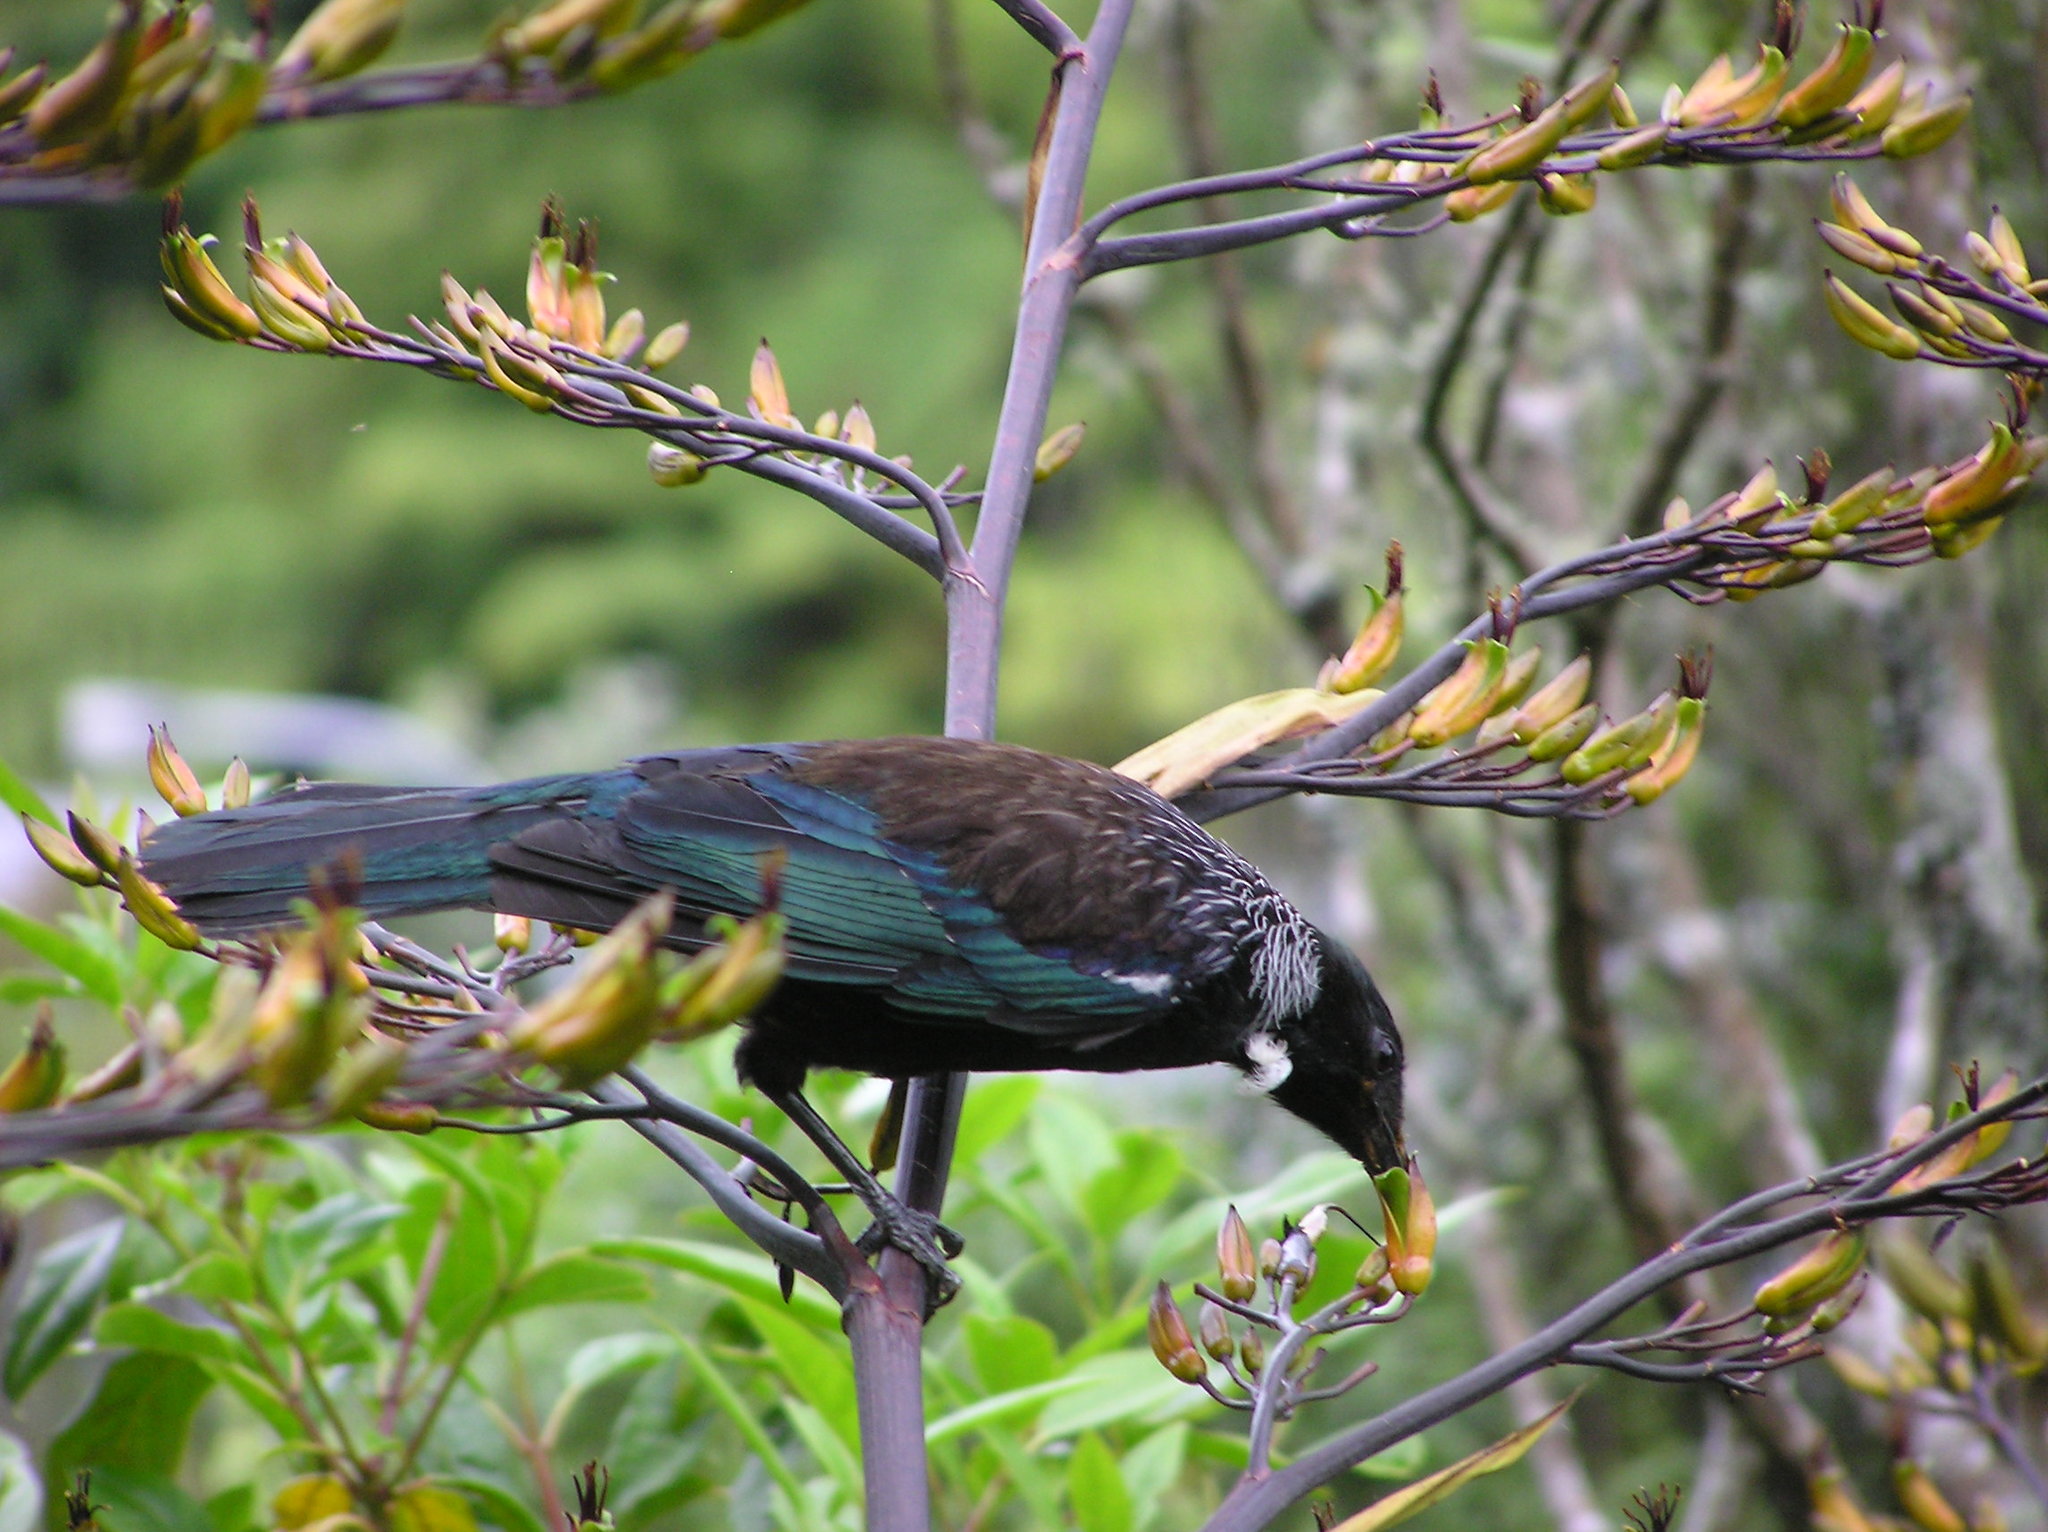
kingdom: Animalia
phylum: Chordata
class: Aves
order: Passeriformes
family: Meliphagidae
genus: Prosthemadera
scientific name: Prosthemadera novaeseelandiae
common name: Tui
